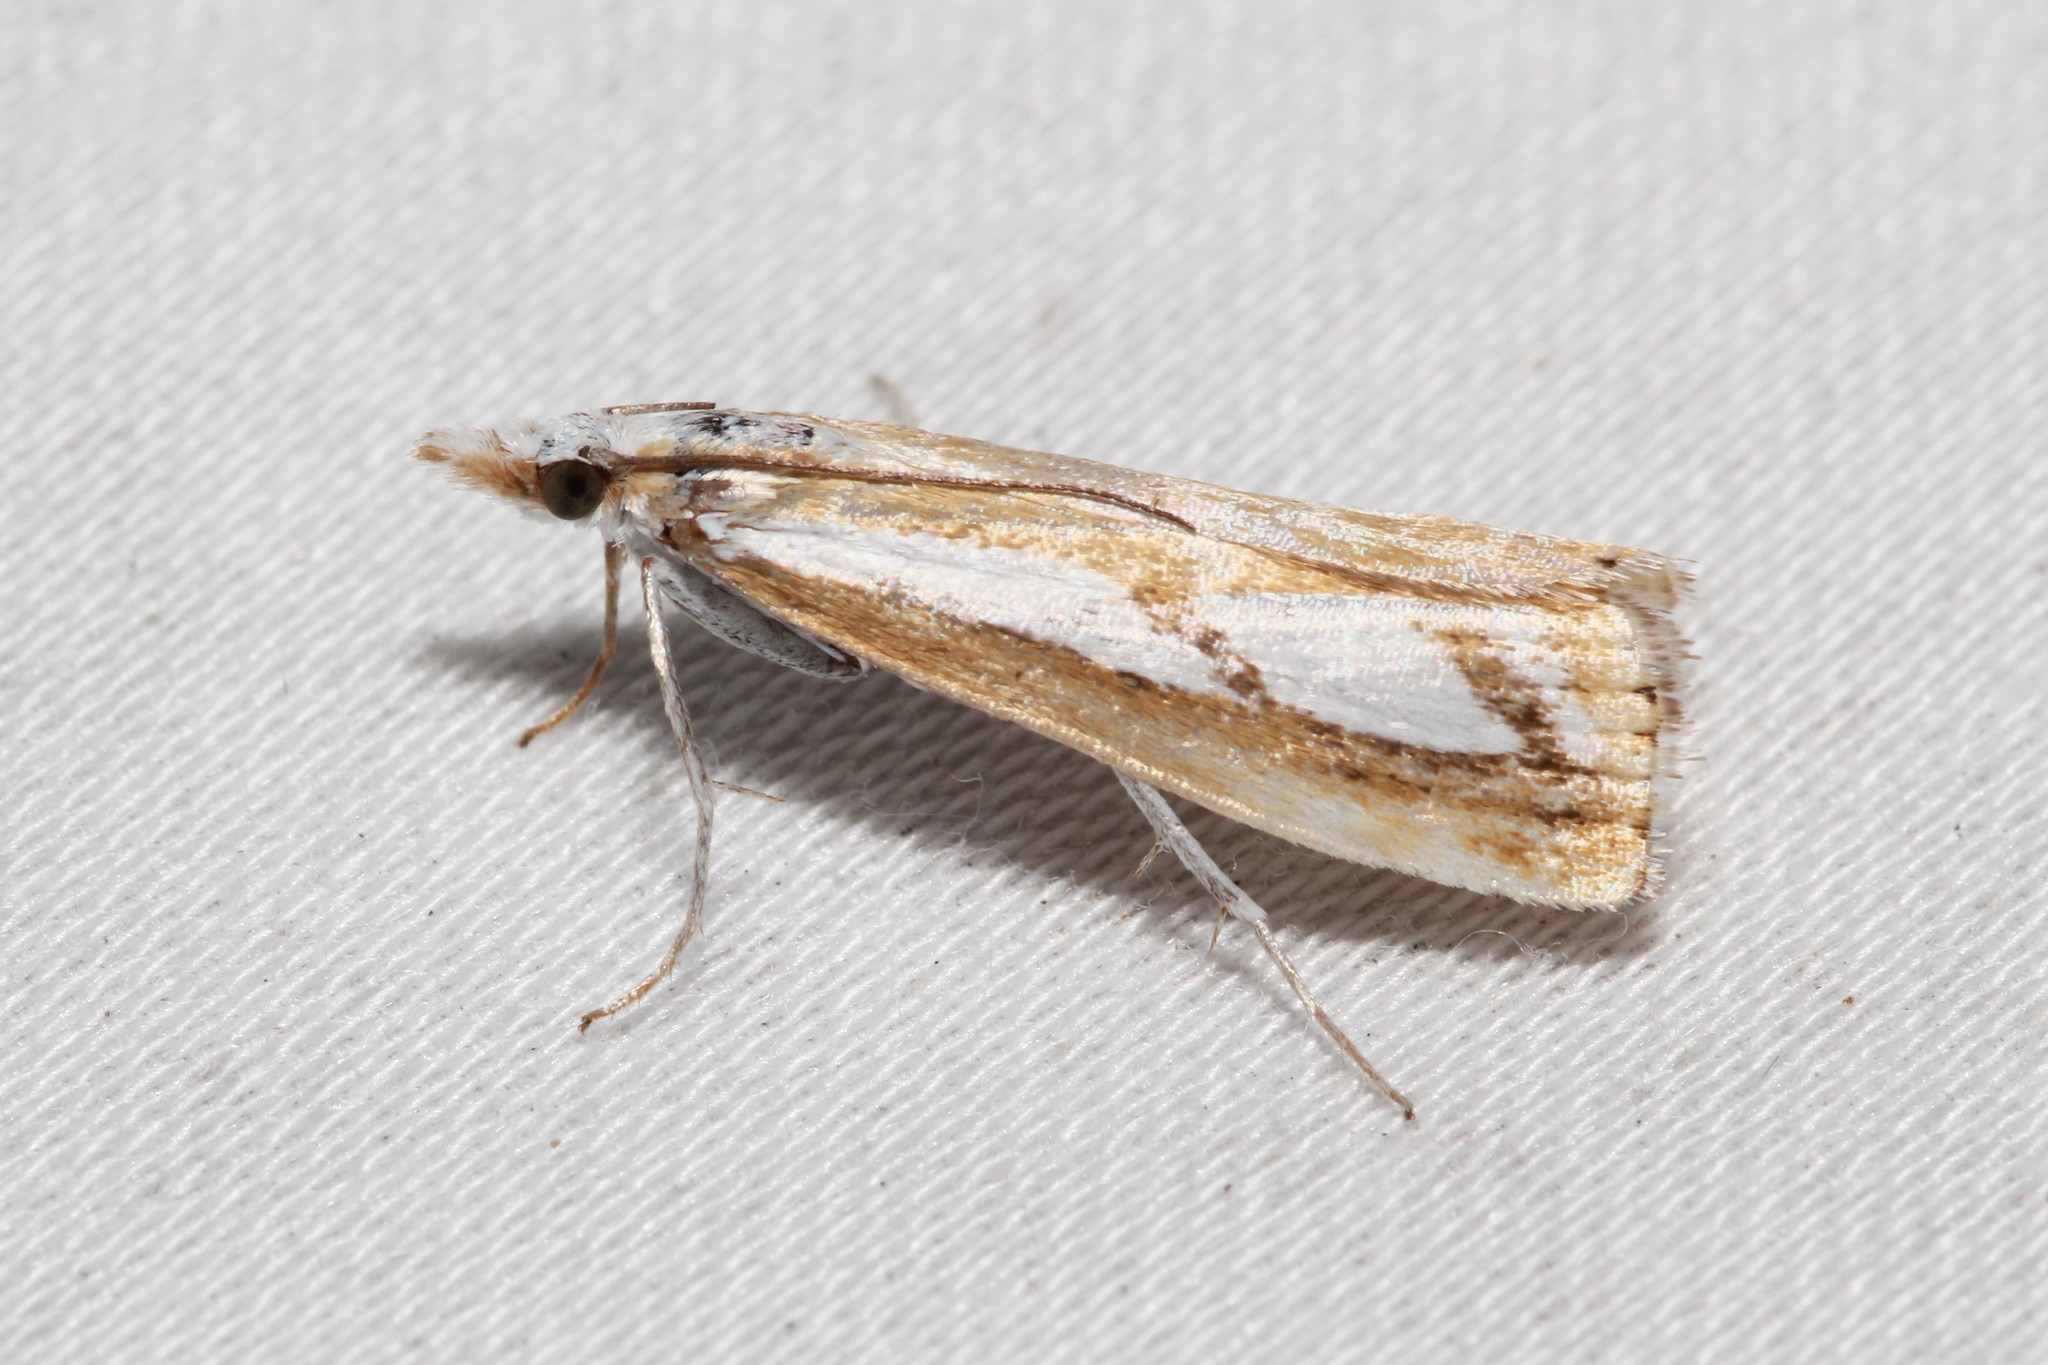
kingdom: Animalia
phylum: Arthropoda
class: Insecta
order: Lepidoptera
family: Crambidae
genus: Catoptria
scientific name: Catoptria latiradiellus
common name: Two-banded catoptria moth
